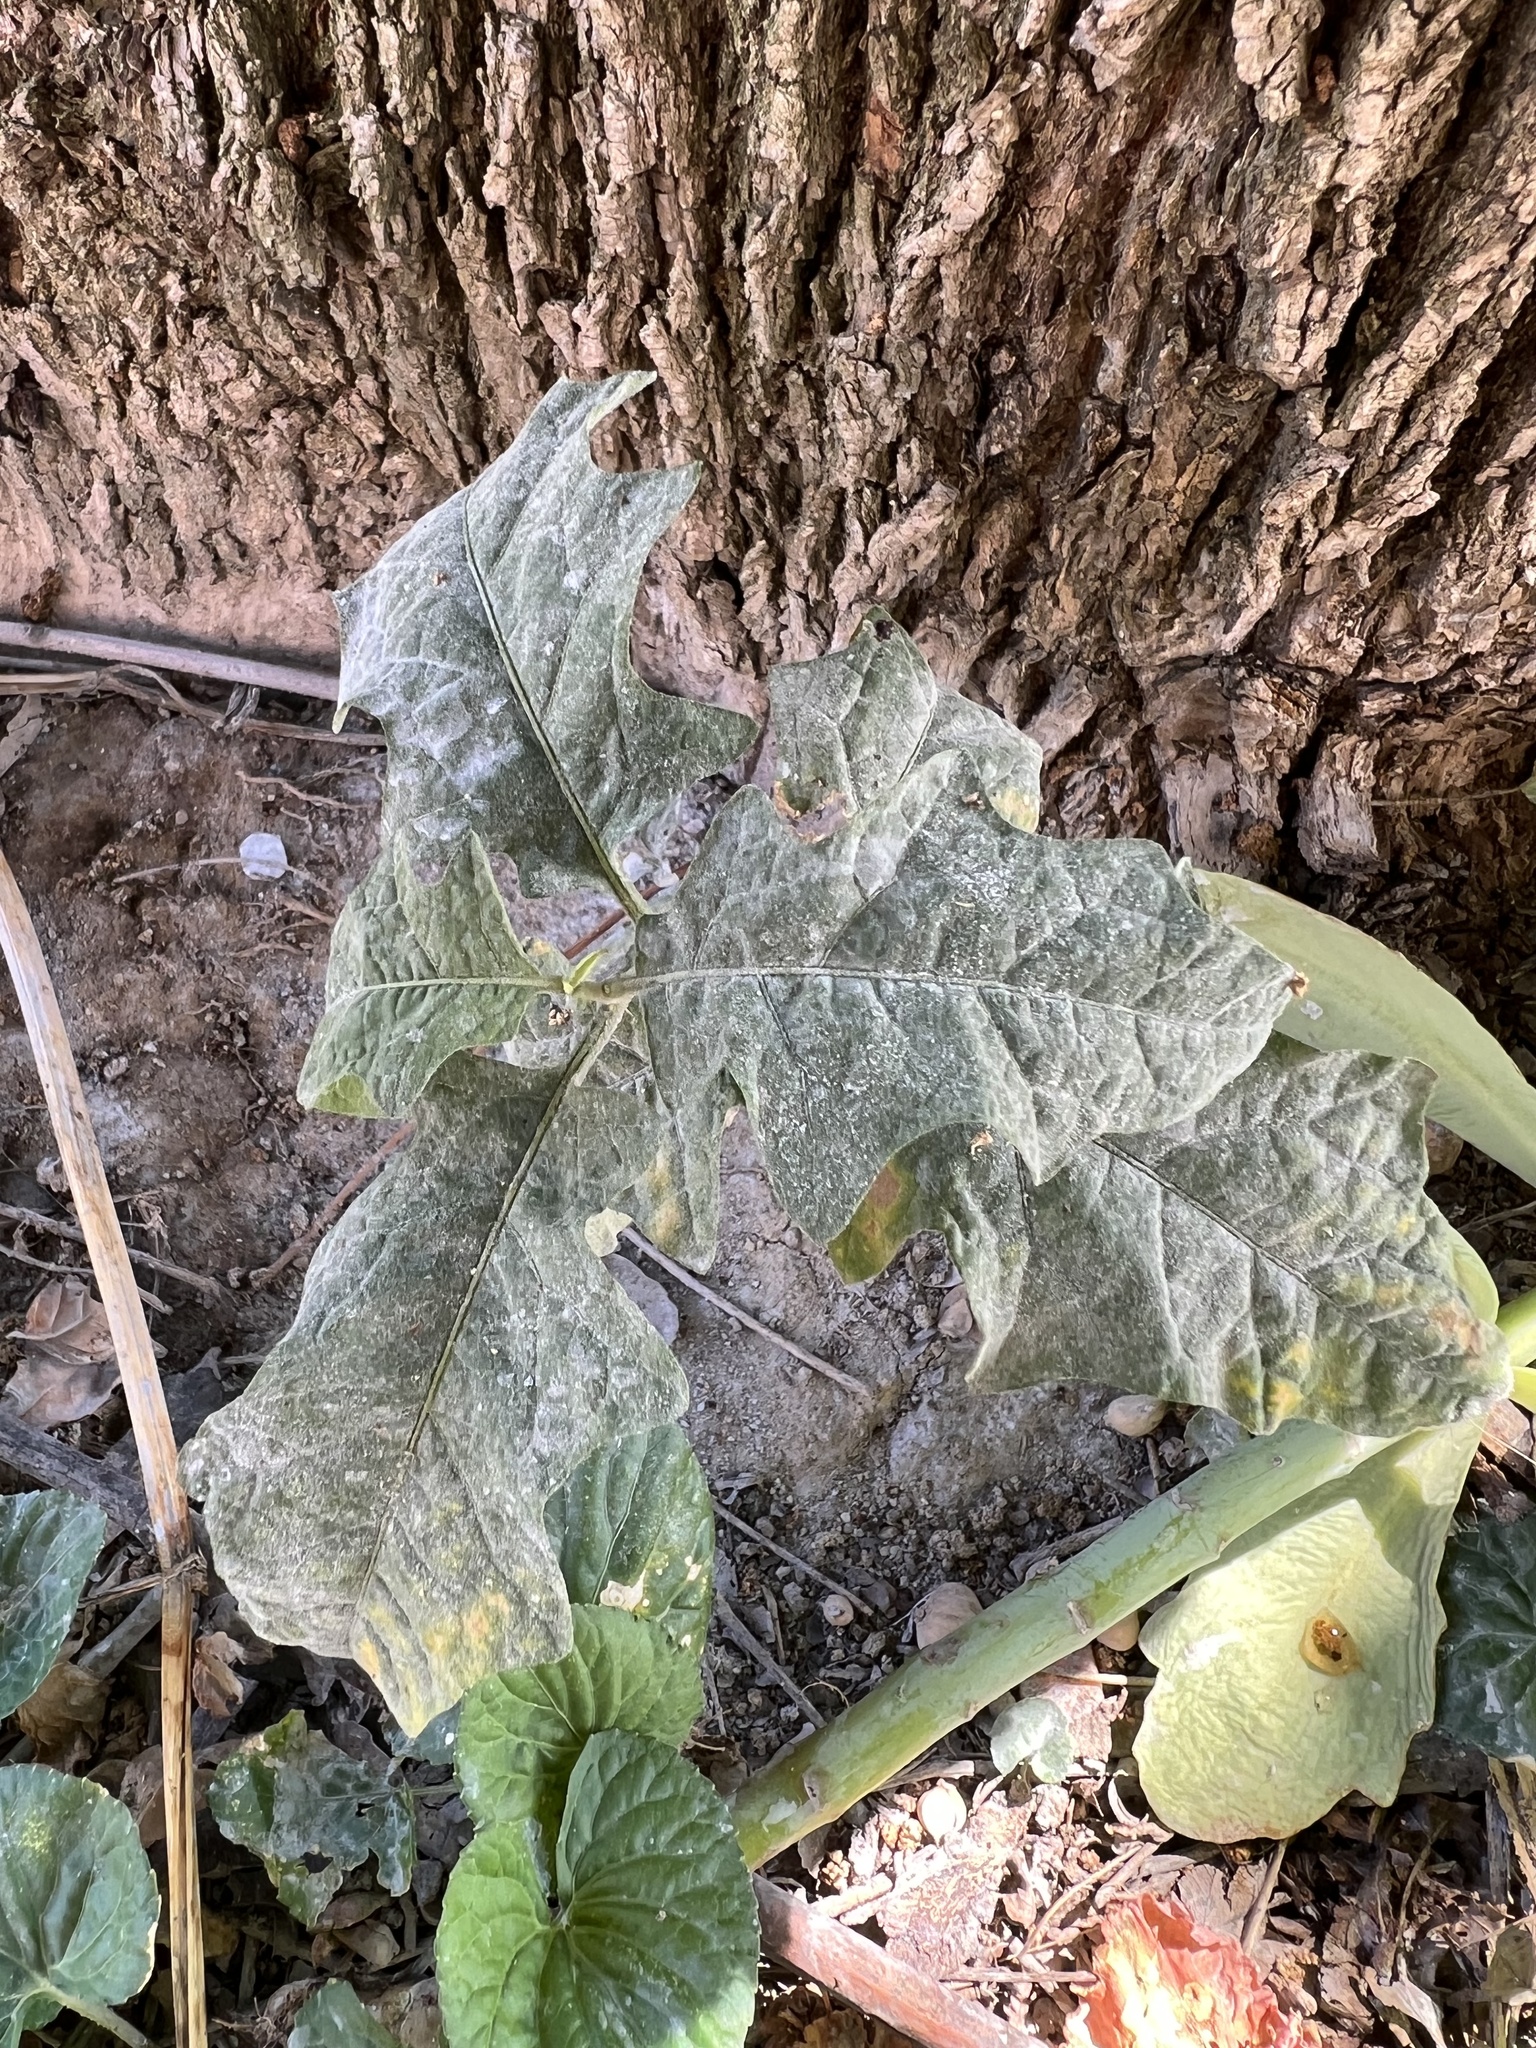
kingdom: Plantae
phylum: Tracheophyta
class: Magnoliopsida
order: Solanales
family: Solanaceae
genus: Solanum
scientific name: Solanum carolinense
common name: Horse-nettle
